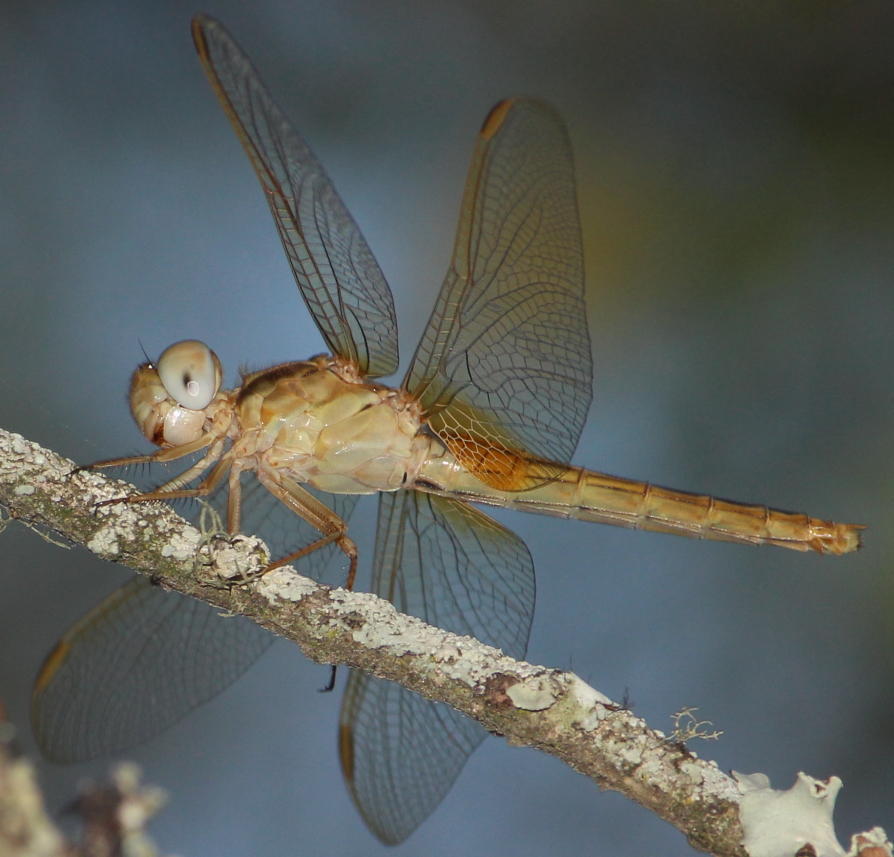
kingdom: Animalia
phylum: Arthropoda
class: Insecta
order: Odonata
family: Libellulidae
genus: Crocothemis
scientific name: Crocothemis erythraea
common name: Scarlet dragonfly
